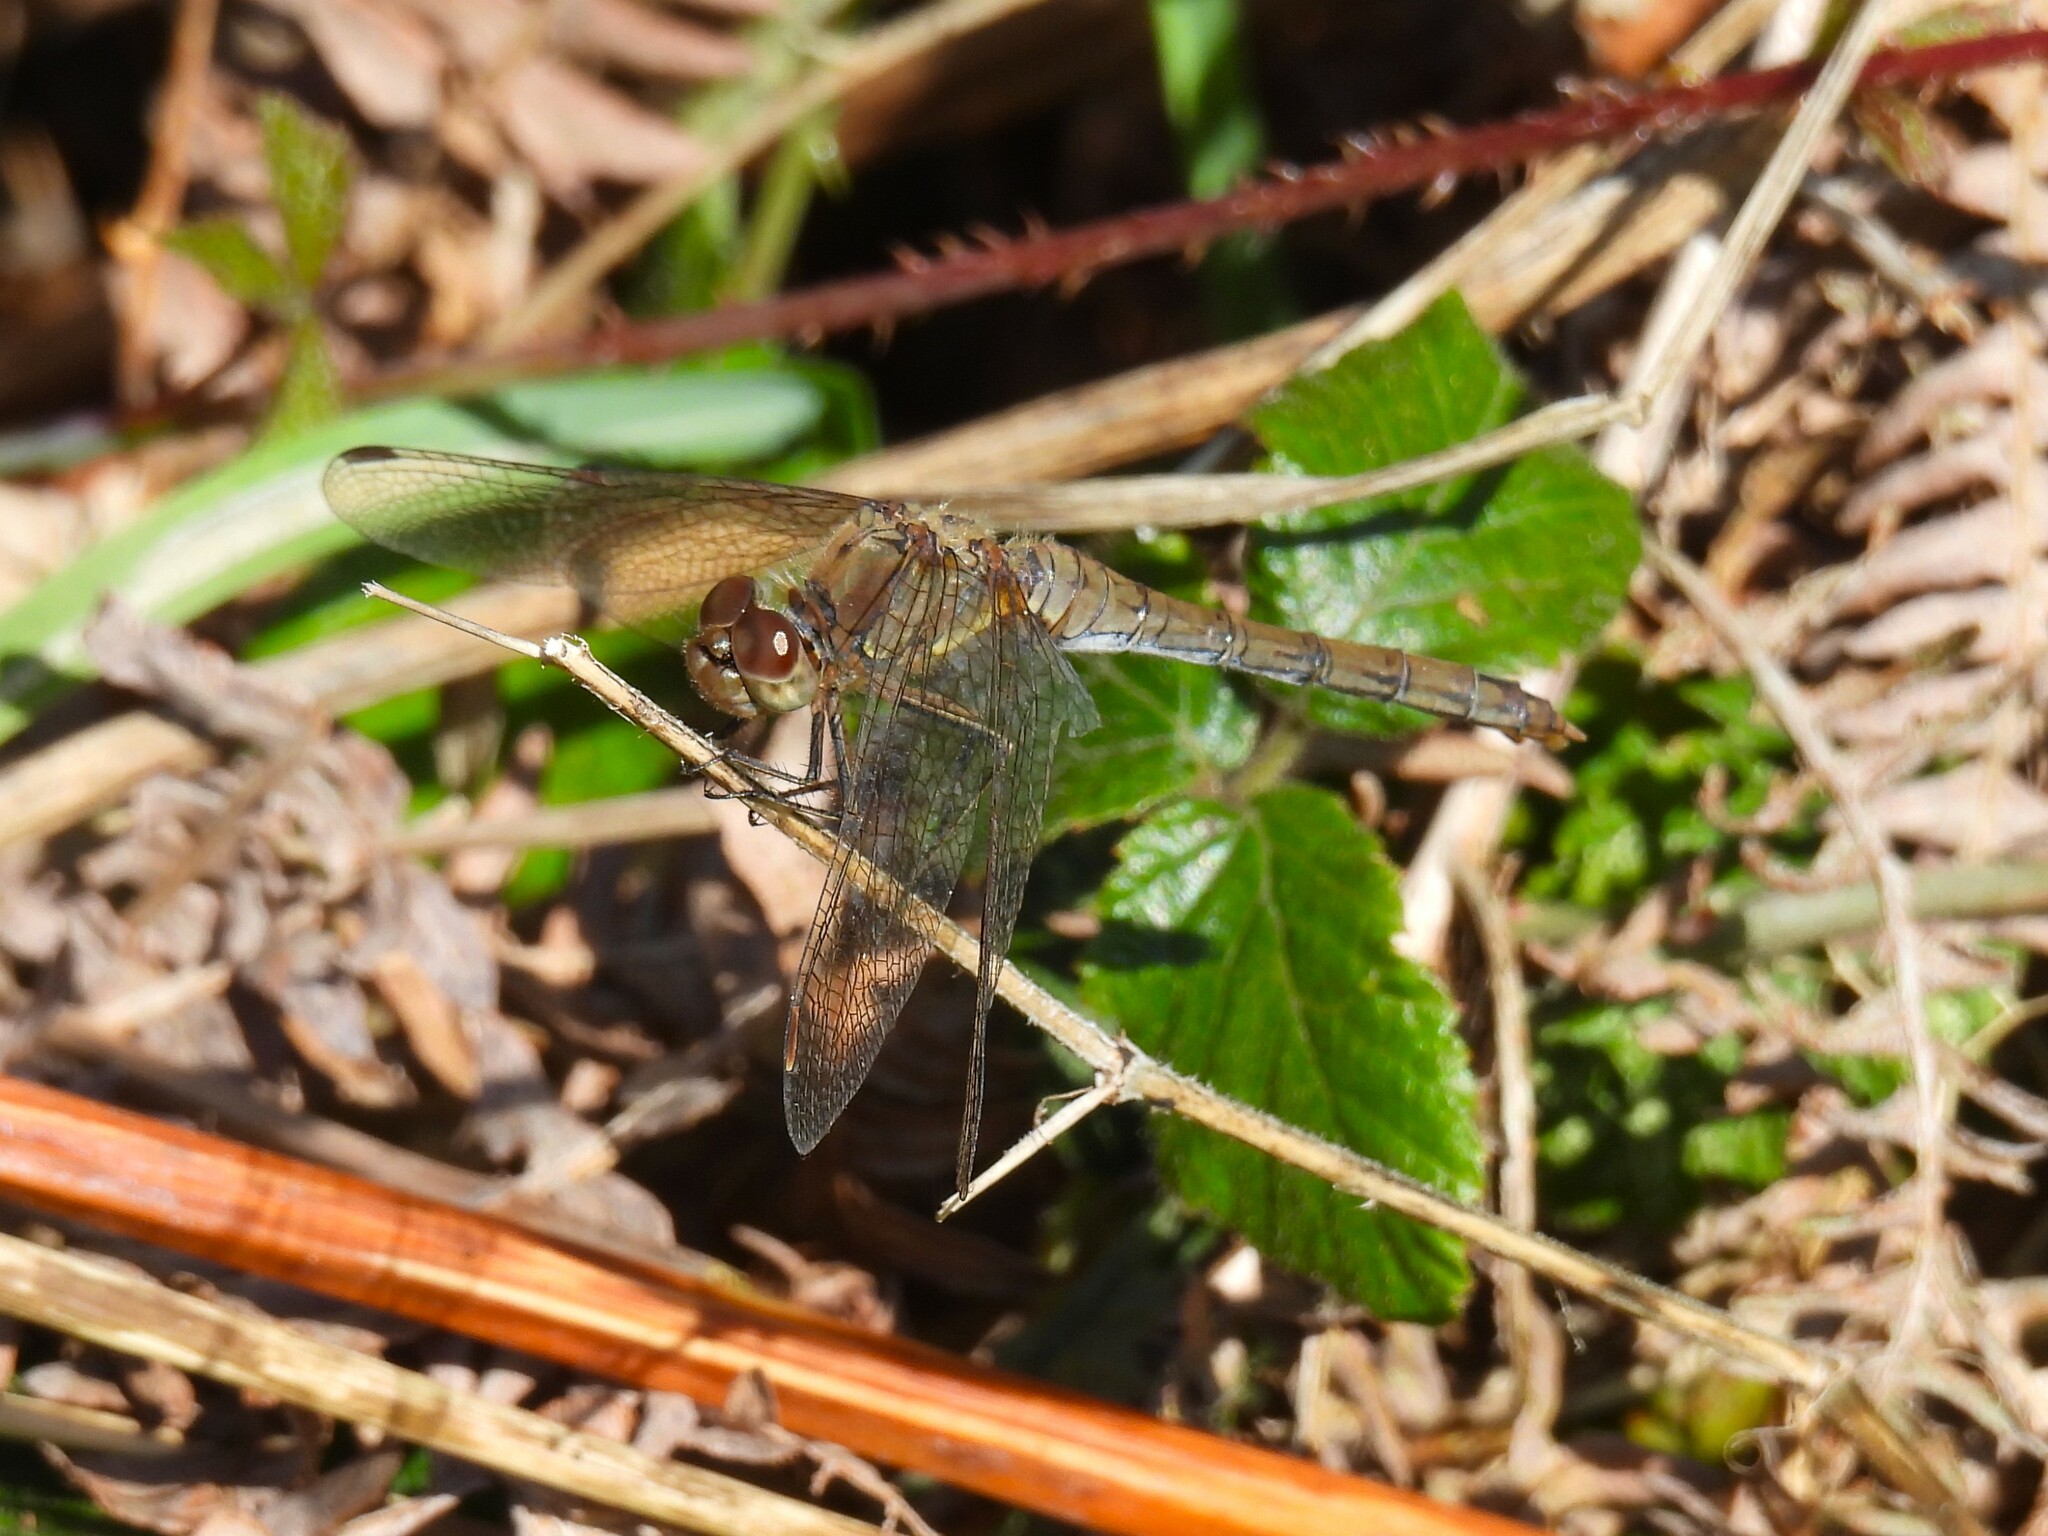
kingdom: Animalia
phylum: Arthropoda
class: Insecta
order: Odonata
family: Libellulidae
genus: Sympetrum
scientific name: Sympetrum striolatum
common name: Common darter
